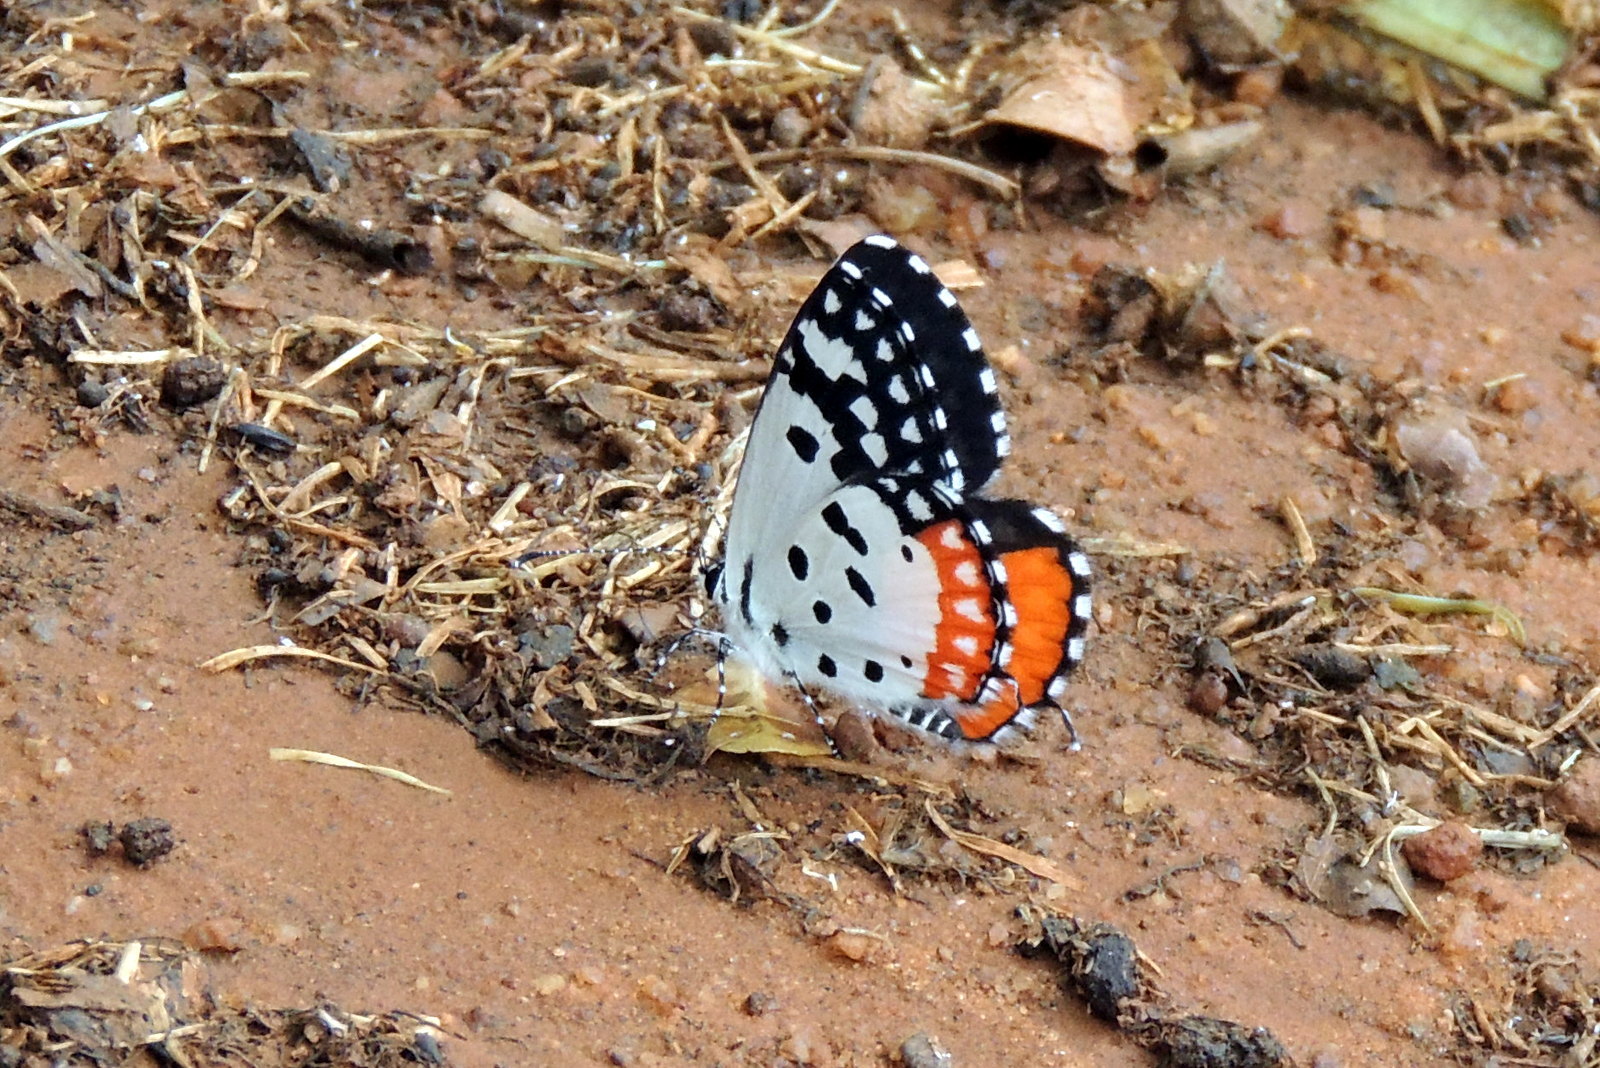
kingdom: Animalia
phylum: Arthropoda
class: Insecta
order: Lepidoptera
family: Lycaenidae
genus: Talicada
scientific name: Talicada nyseus
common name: Red pierrot
